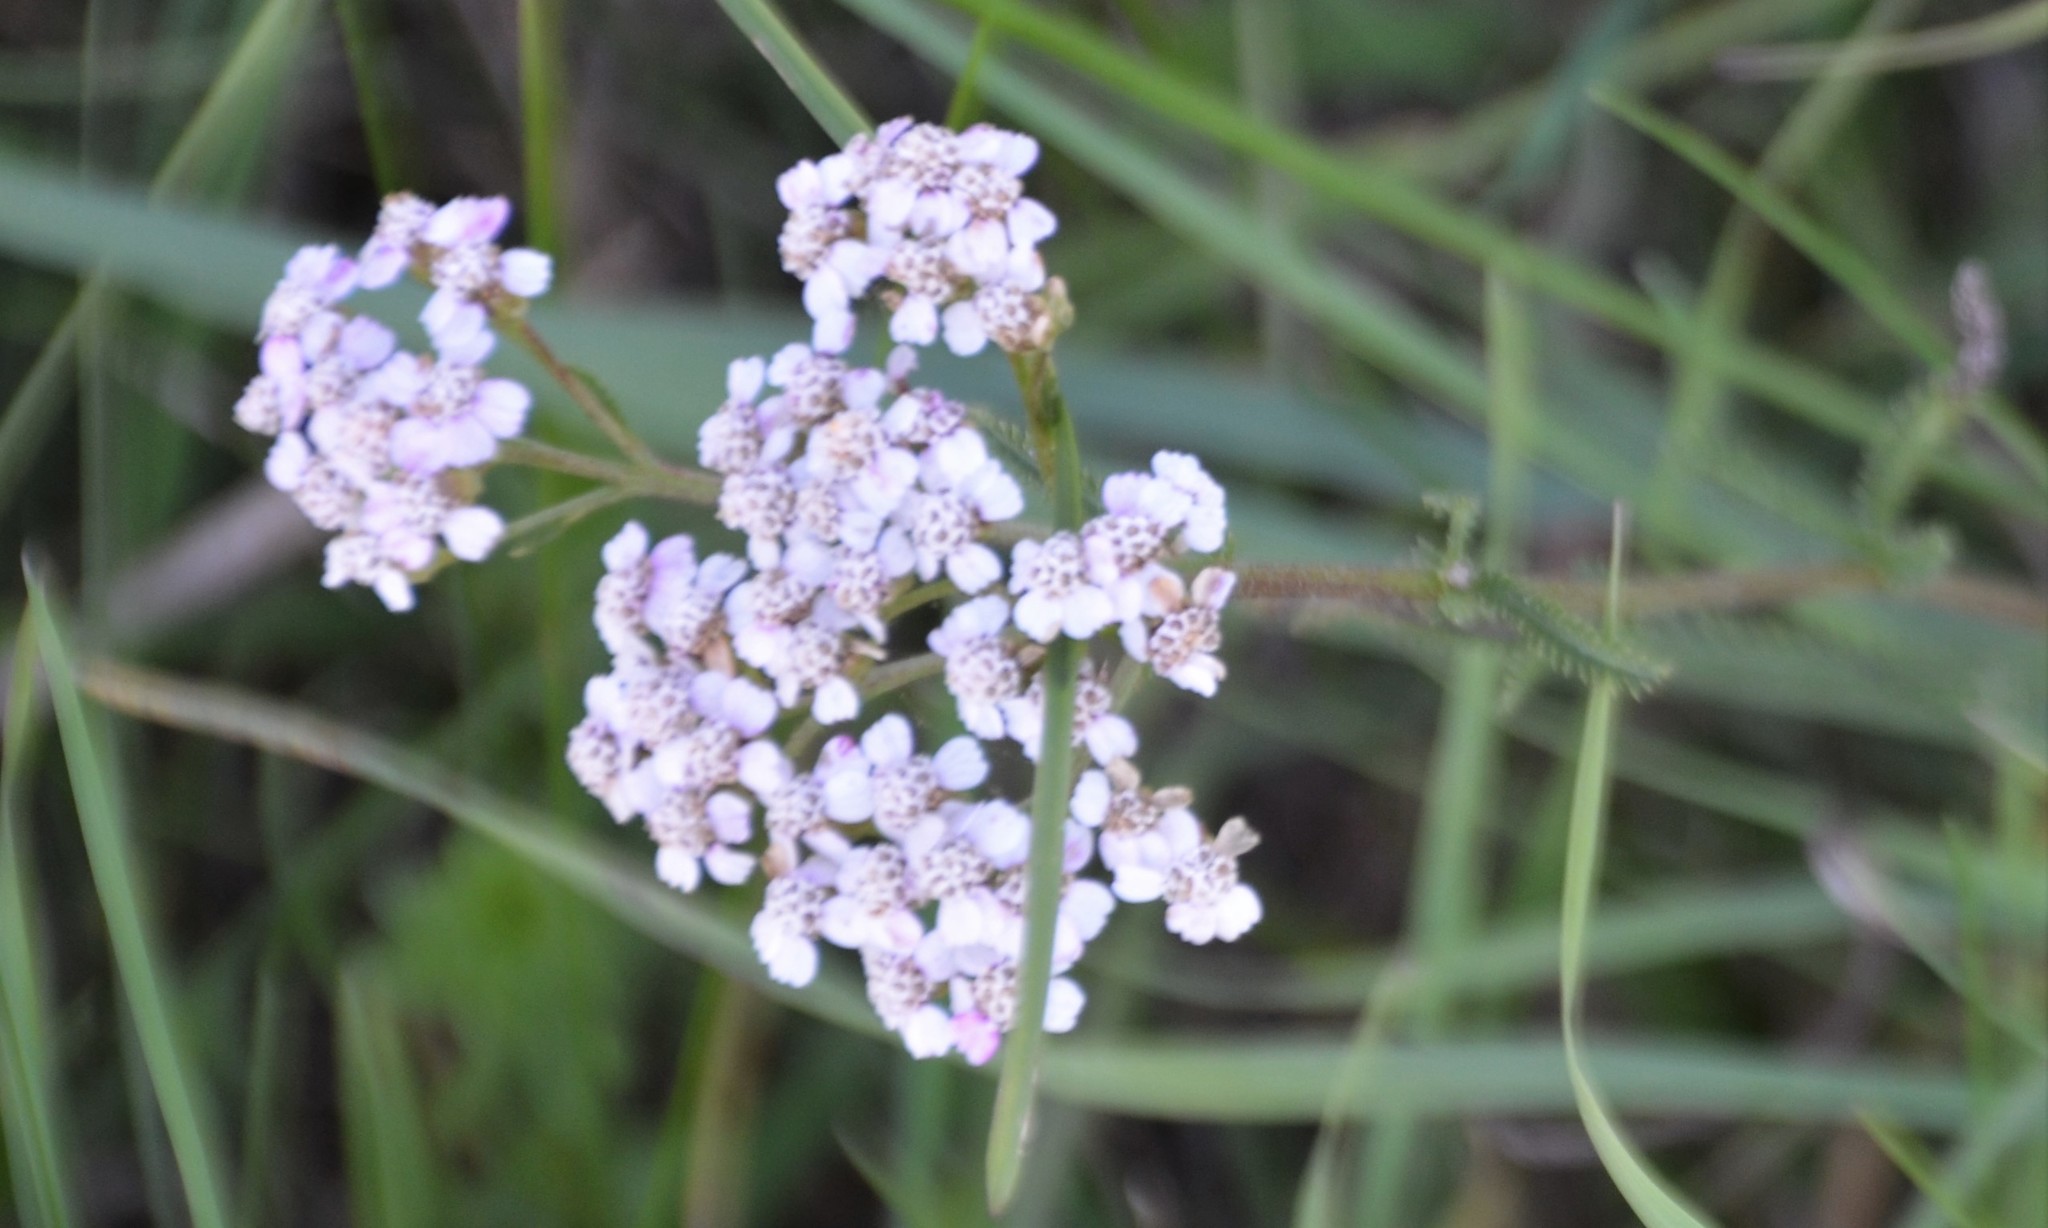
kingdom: Plantae
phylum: Tracheophyta
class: Magnoliopsida
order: Asterales
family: Asteraceae
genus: Achillea
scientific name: Achillea millefolium
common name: Yarrow
